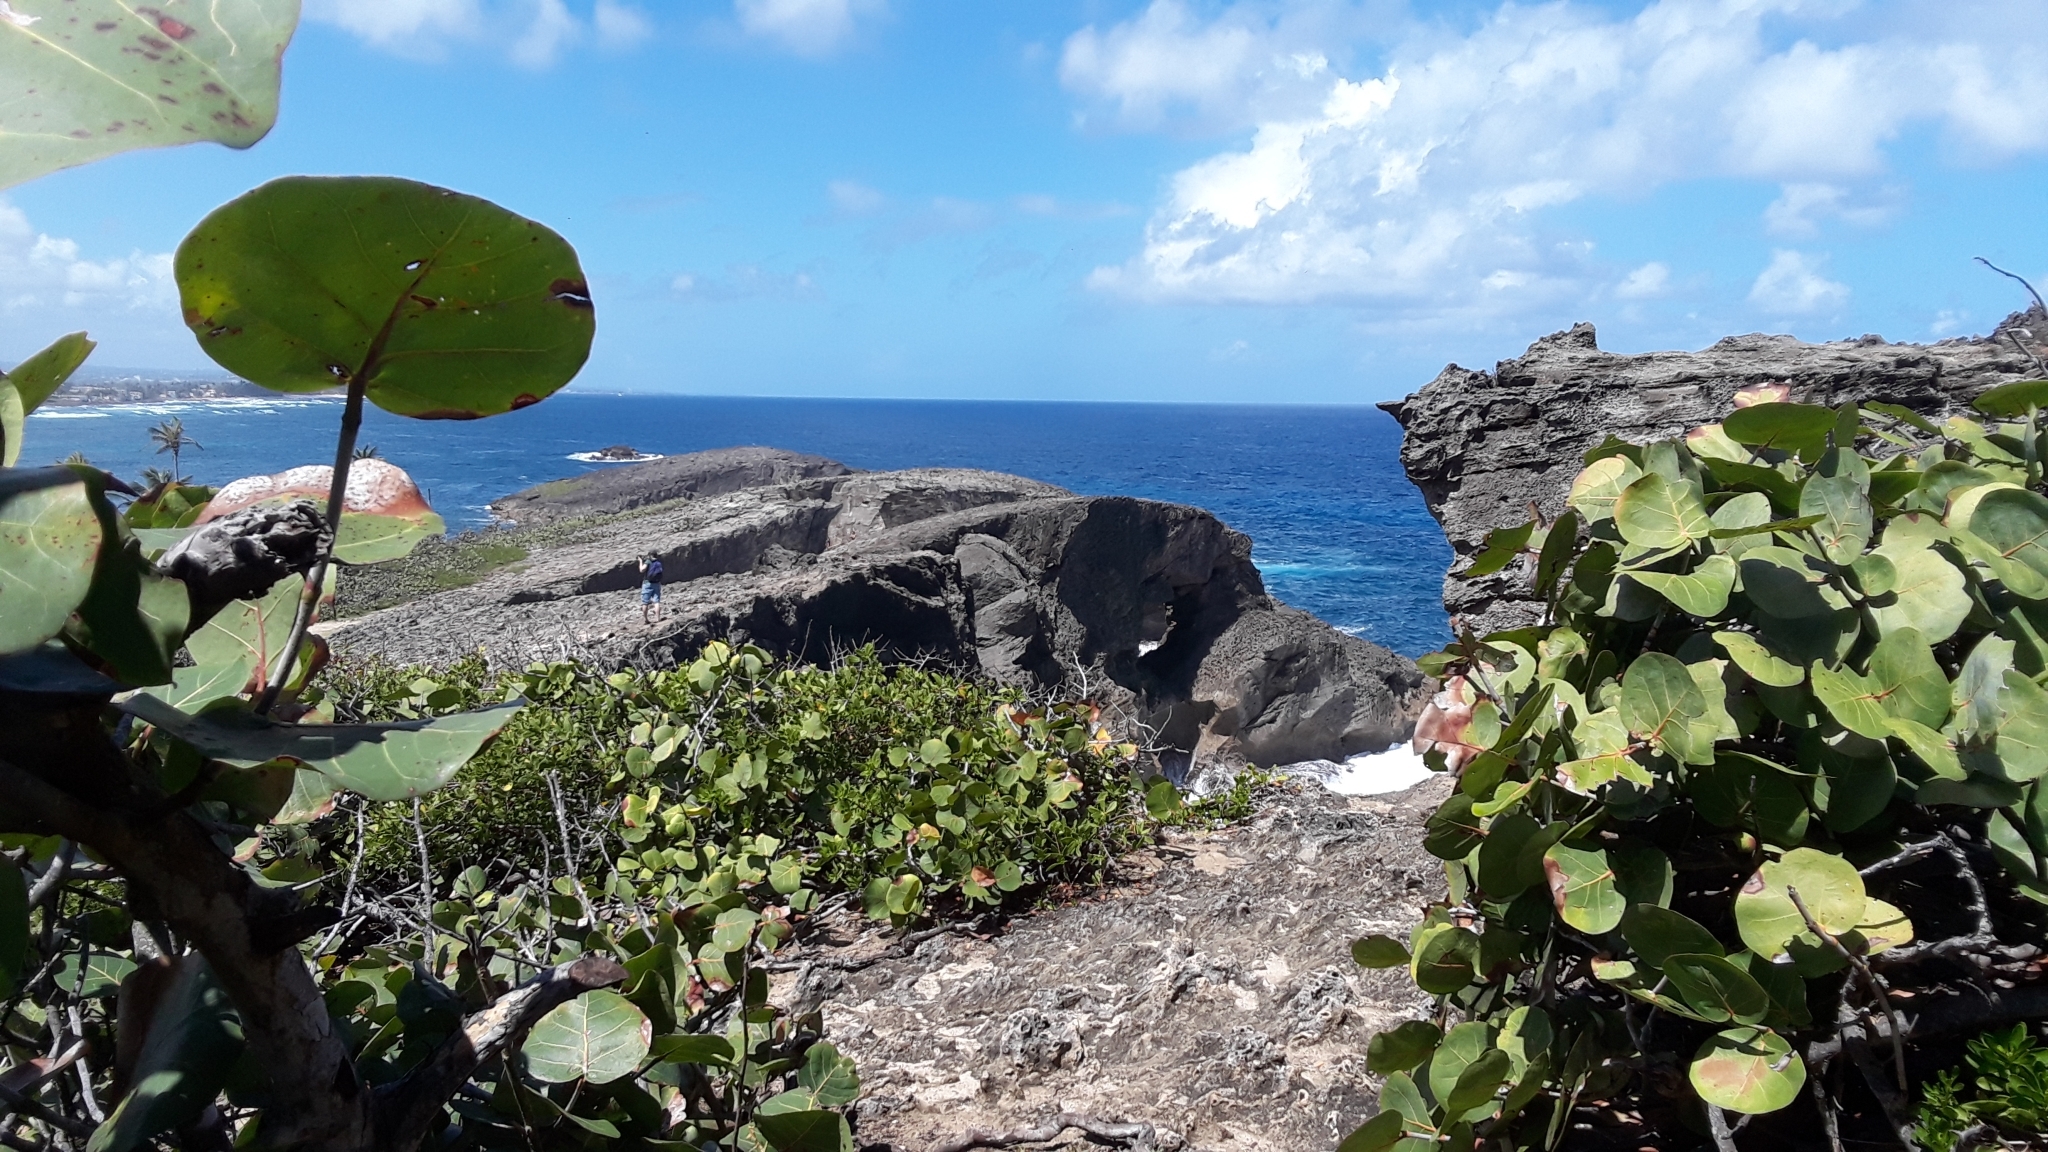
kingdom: Plantae
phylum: Tracheophyta
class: Magnoliopsida
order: Caryophyllales
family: Polygonaceae
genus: Coccoloba
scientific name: Coccoloba uvifera
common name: Seagrape
